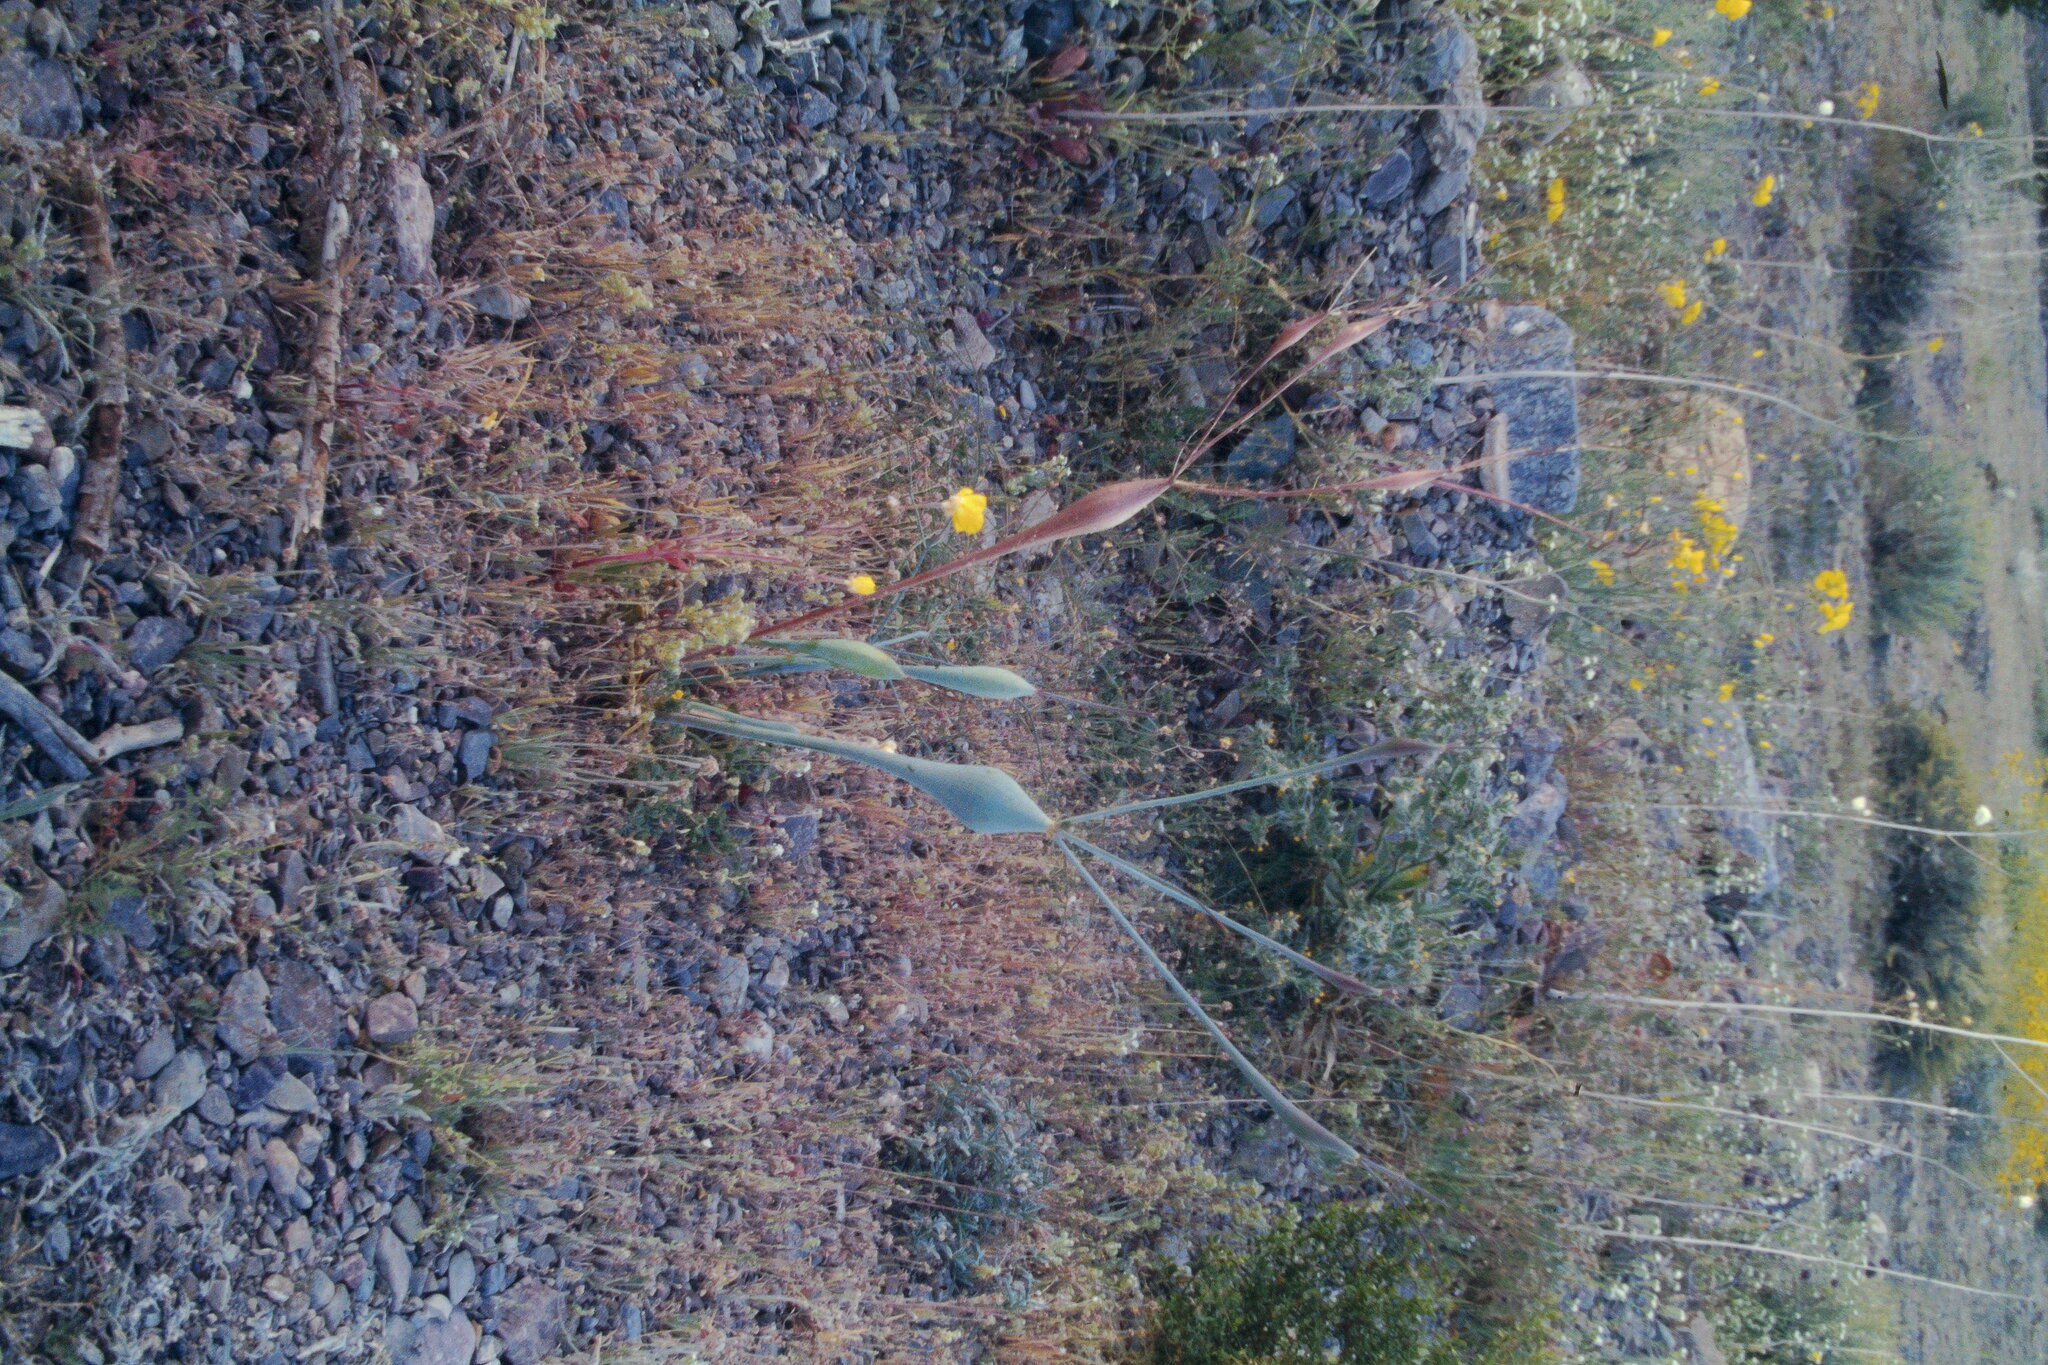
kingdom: Plantae
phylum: Tracheophyta
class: Magnoliopsida
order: Caryophyllales
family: Polygonaceae
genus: Eriogonum
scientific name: Eriogonum inflatum
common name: Desert trumpet
